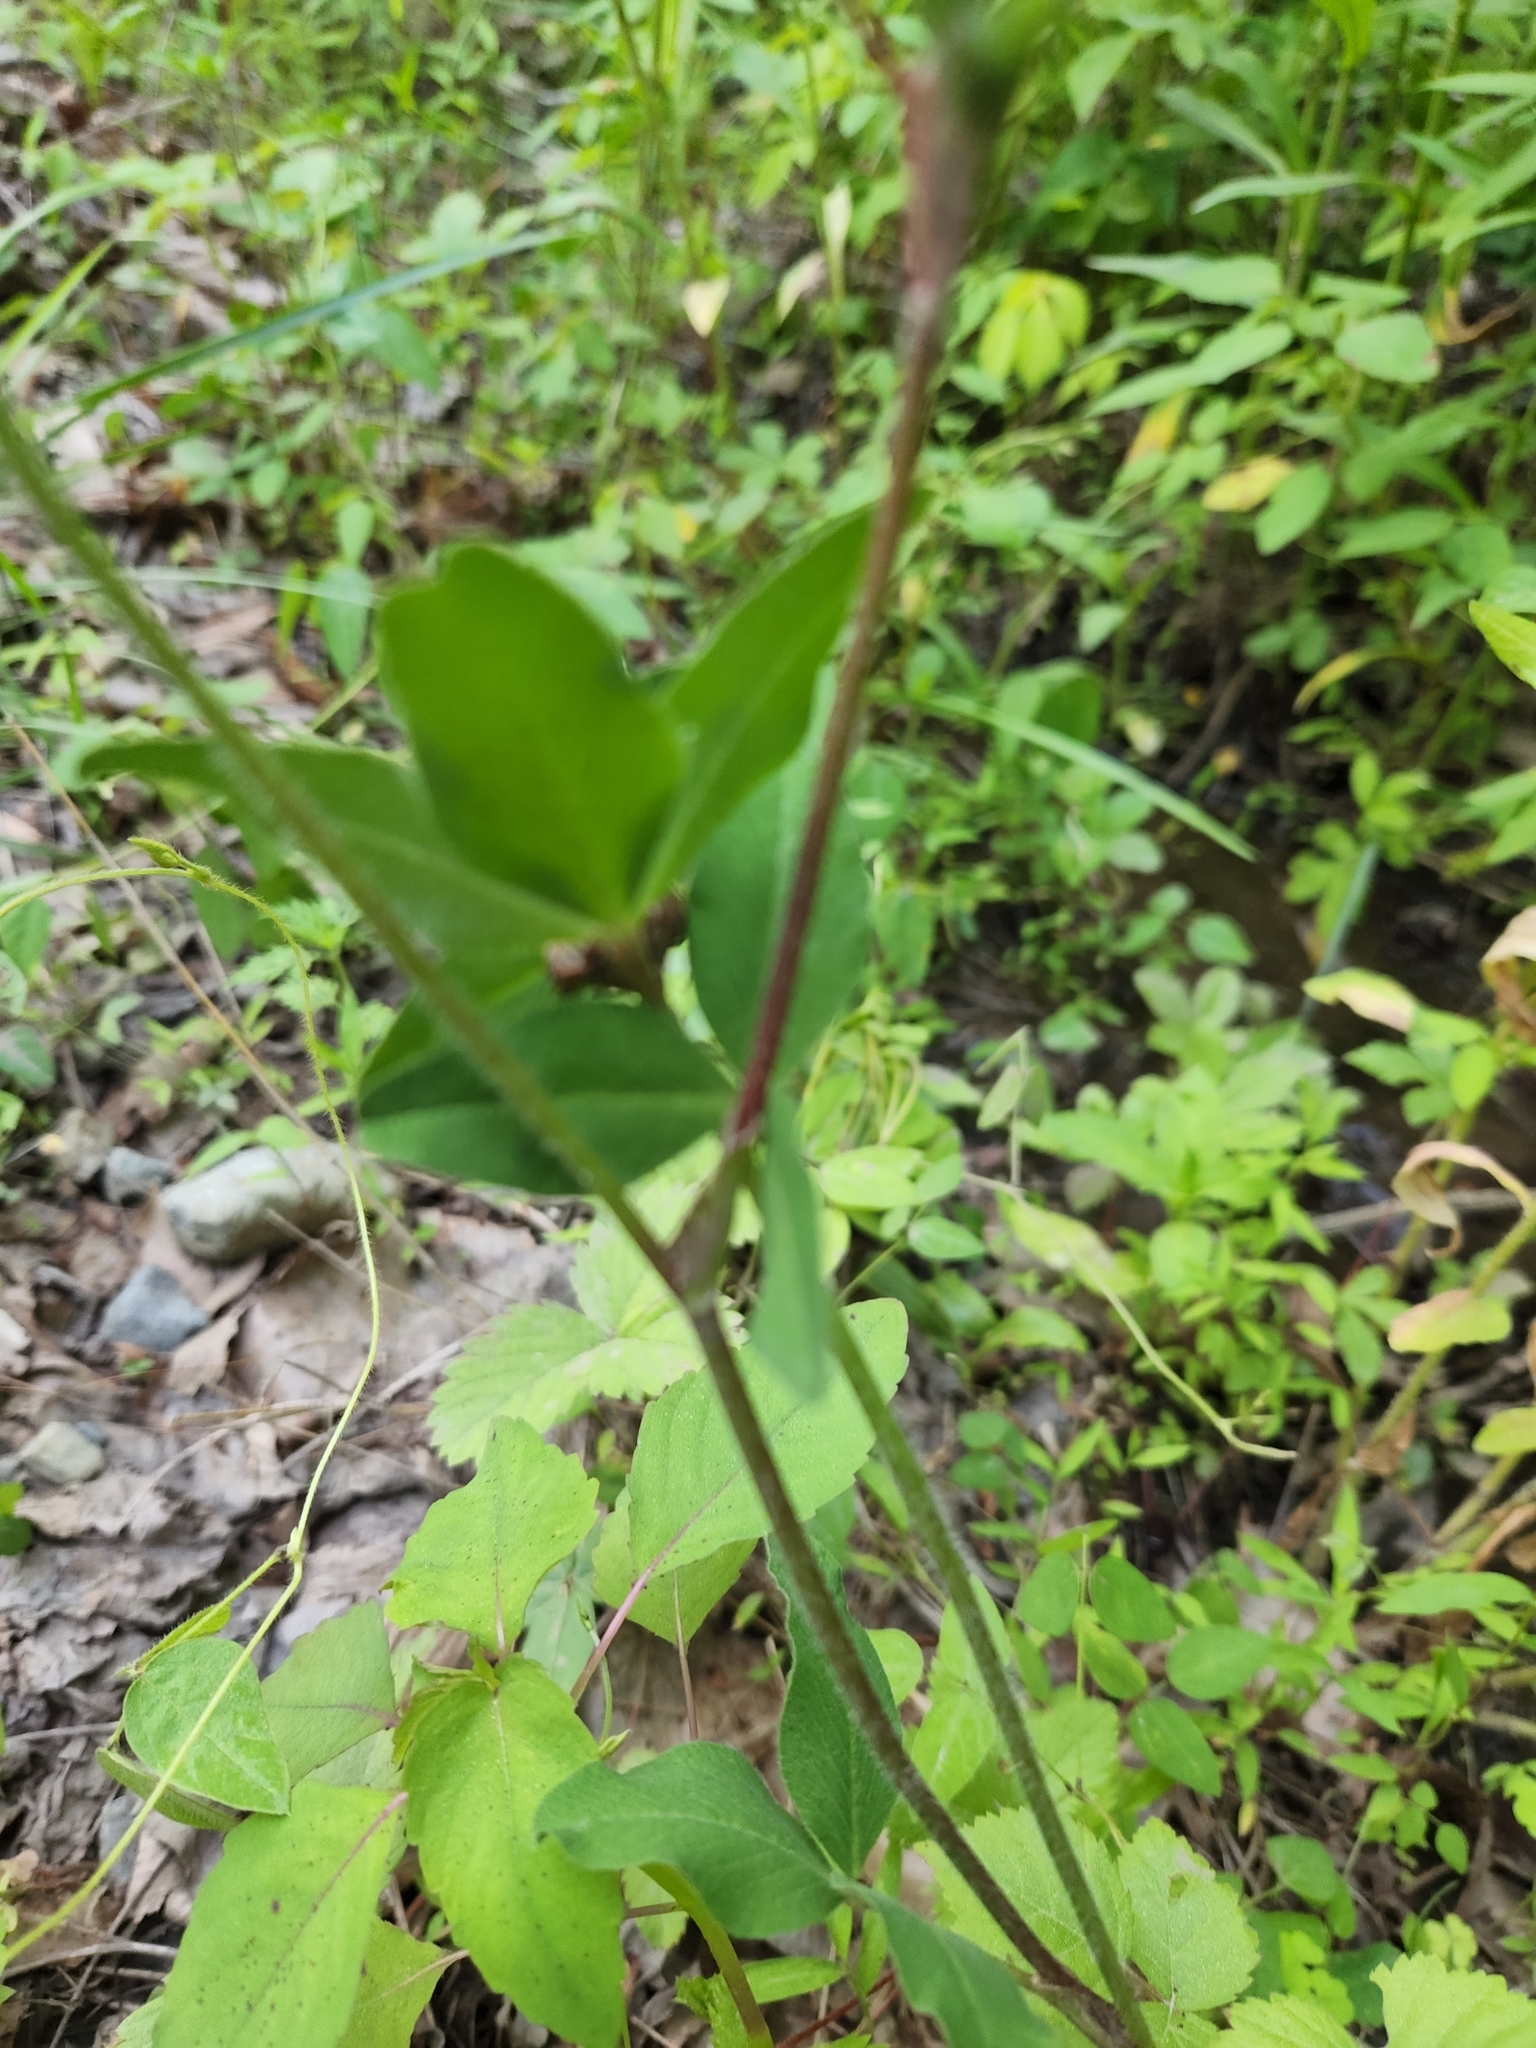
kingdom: Plantae
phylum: Tracheophyta
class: Magnoliopsida
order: Fabales
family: Fabaceae
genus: Trifolium
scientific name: Trifolium pratense
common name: Red clover
